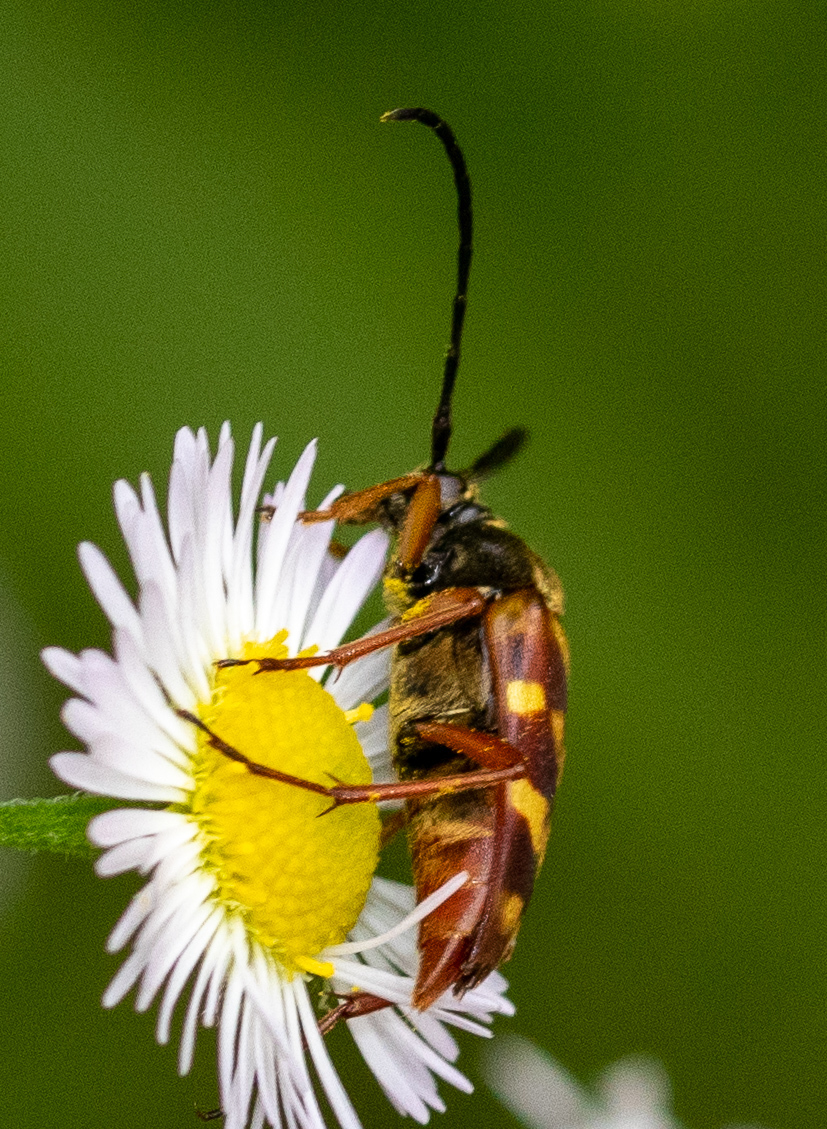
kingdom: Animalia
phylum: Arthropoda
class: Insecta
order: Coleoptera
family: Cerambycidae
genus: Typocerus
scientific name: Typocerus velutinus
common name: Banded longhorn beetle
